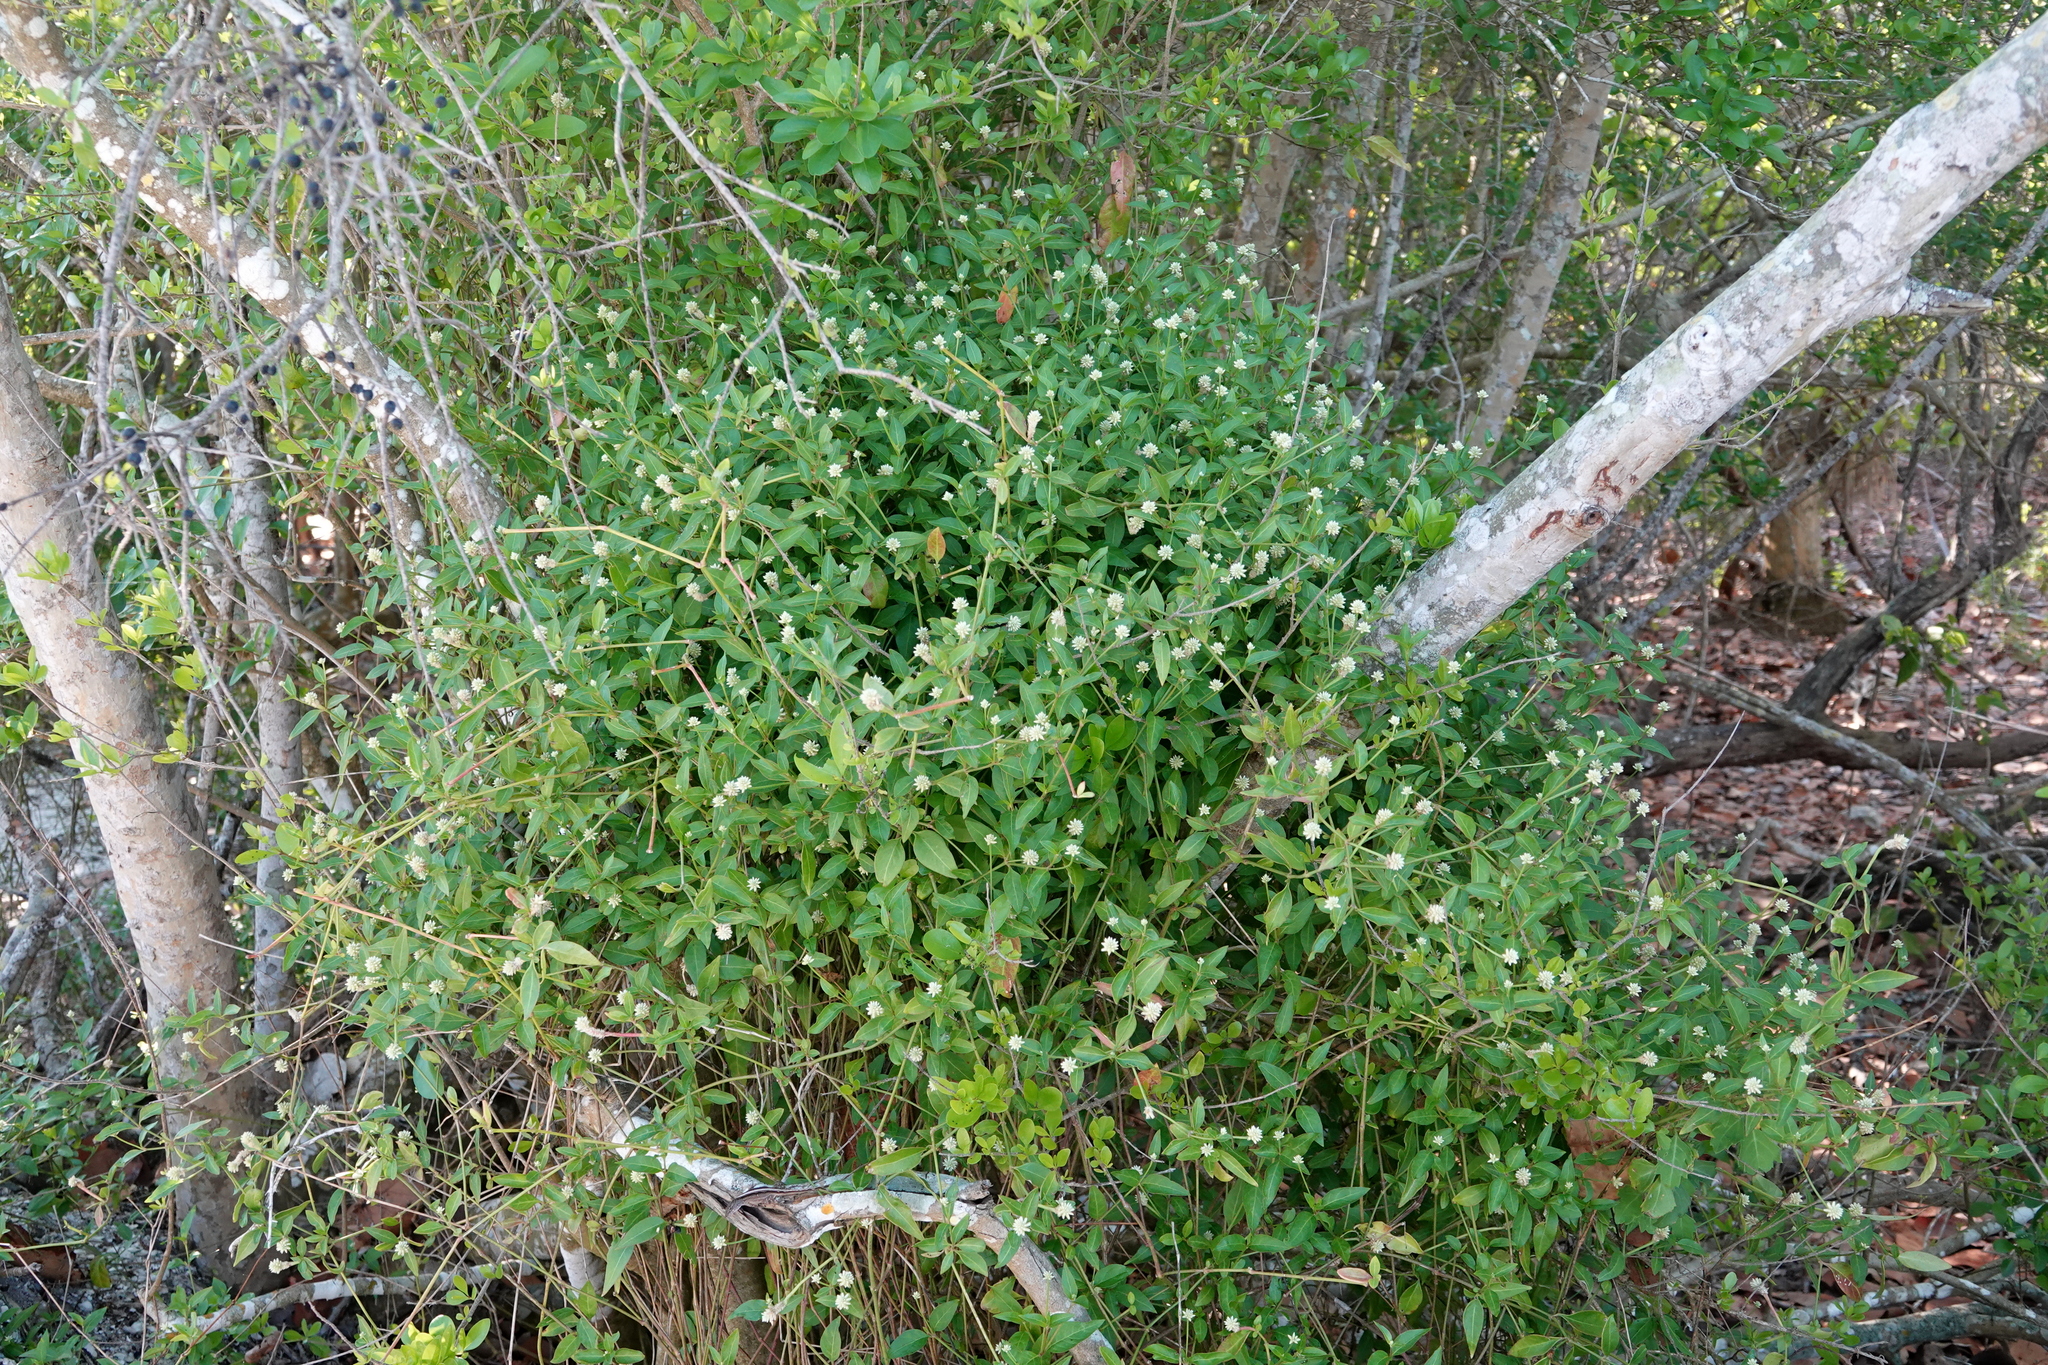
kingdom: Plantae
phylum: Tracheophyta
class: Magnoliopsida
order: Caryophyllales
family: Amaranthaceae
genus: Gomphrena
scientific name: Gomphrena serrata
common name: Arrasa con todo
